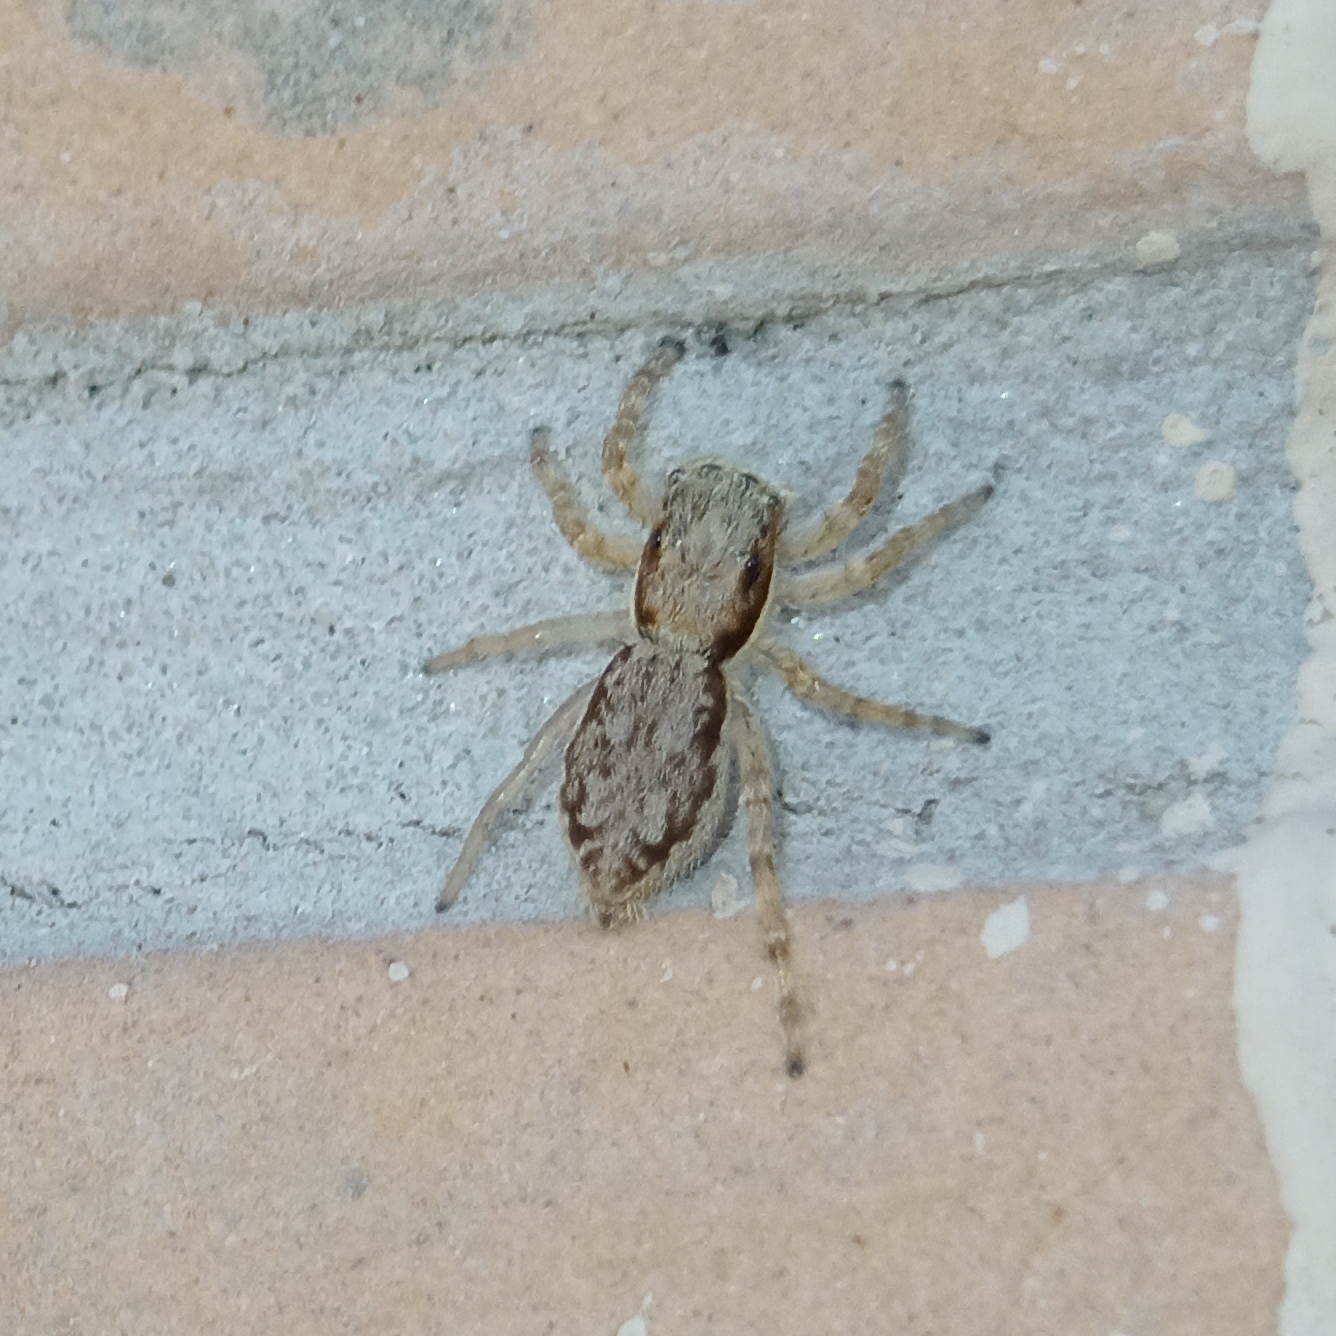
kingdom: Animalia
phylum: Arthropoda
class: Arachnida
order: Araneae
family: Salticidae
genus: Menemerus
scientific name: Menemerus bivittatus
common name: Gray wall jumper
